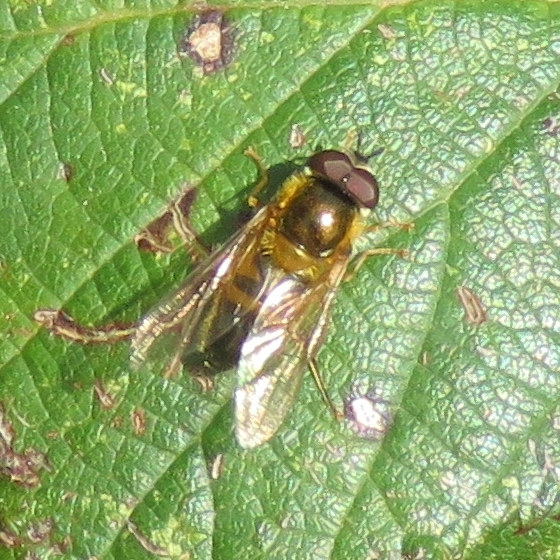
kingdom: Animalia
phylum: Arthropoda
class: Insecta
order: Diptera
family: Syrphidae
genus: Epistrophe
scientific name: Epistrophe eligans
